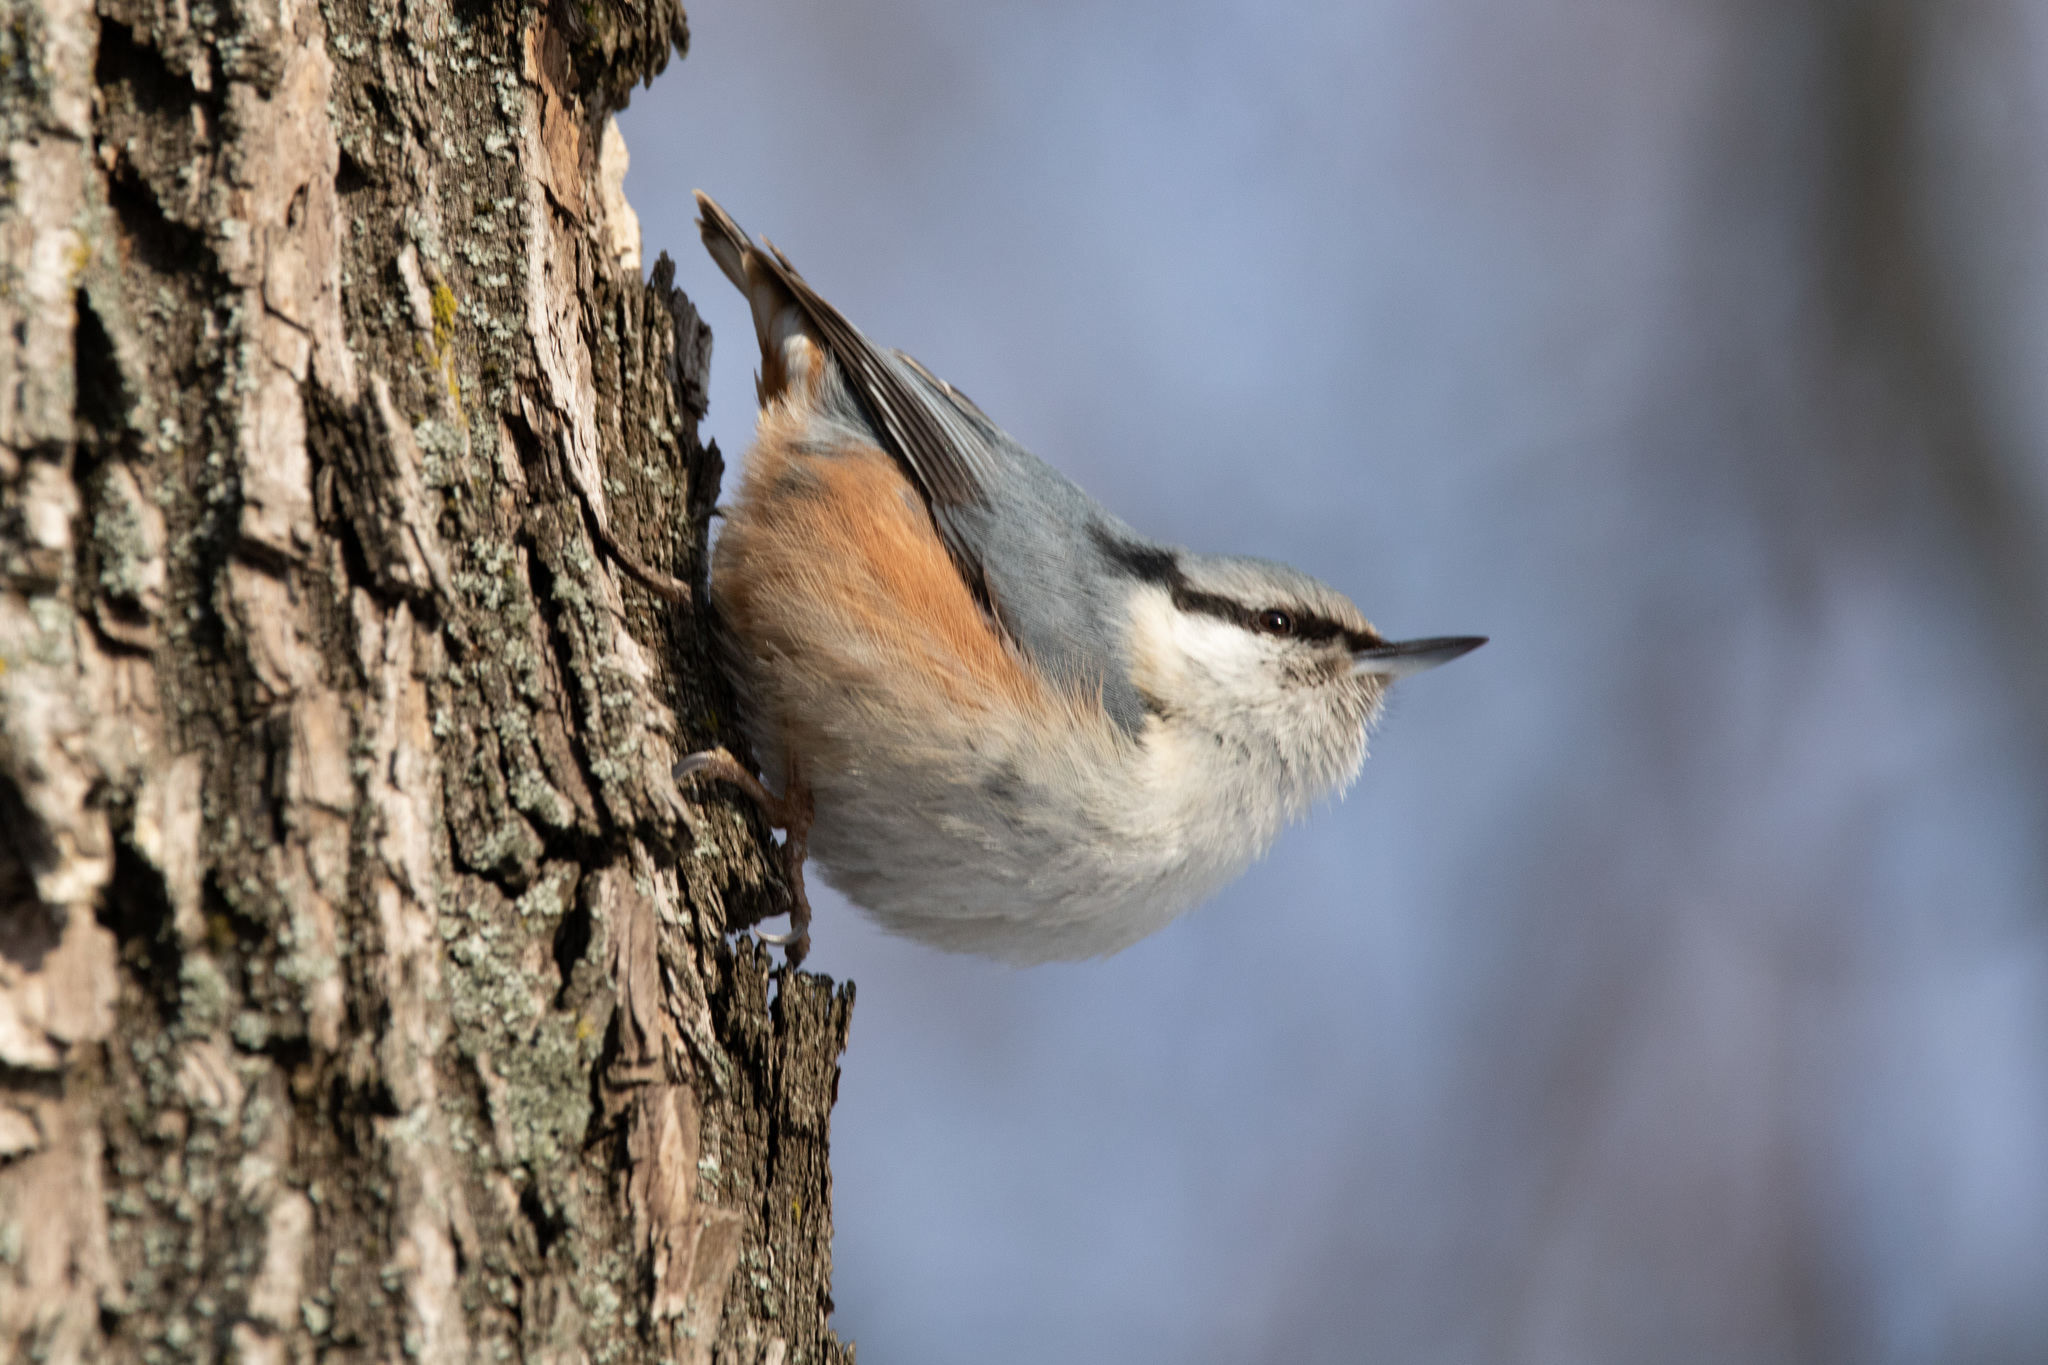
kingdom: Animalia
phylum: Chordata
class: Aves
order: Passeriformes
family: Sittidae
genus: Sitta
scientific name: Sitta europaea
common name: Eurasian nuthatch
